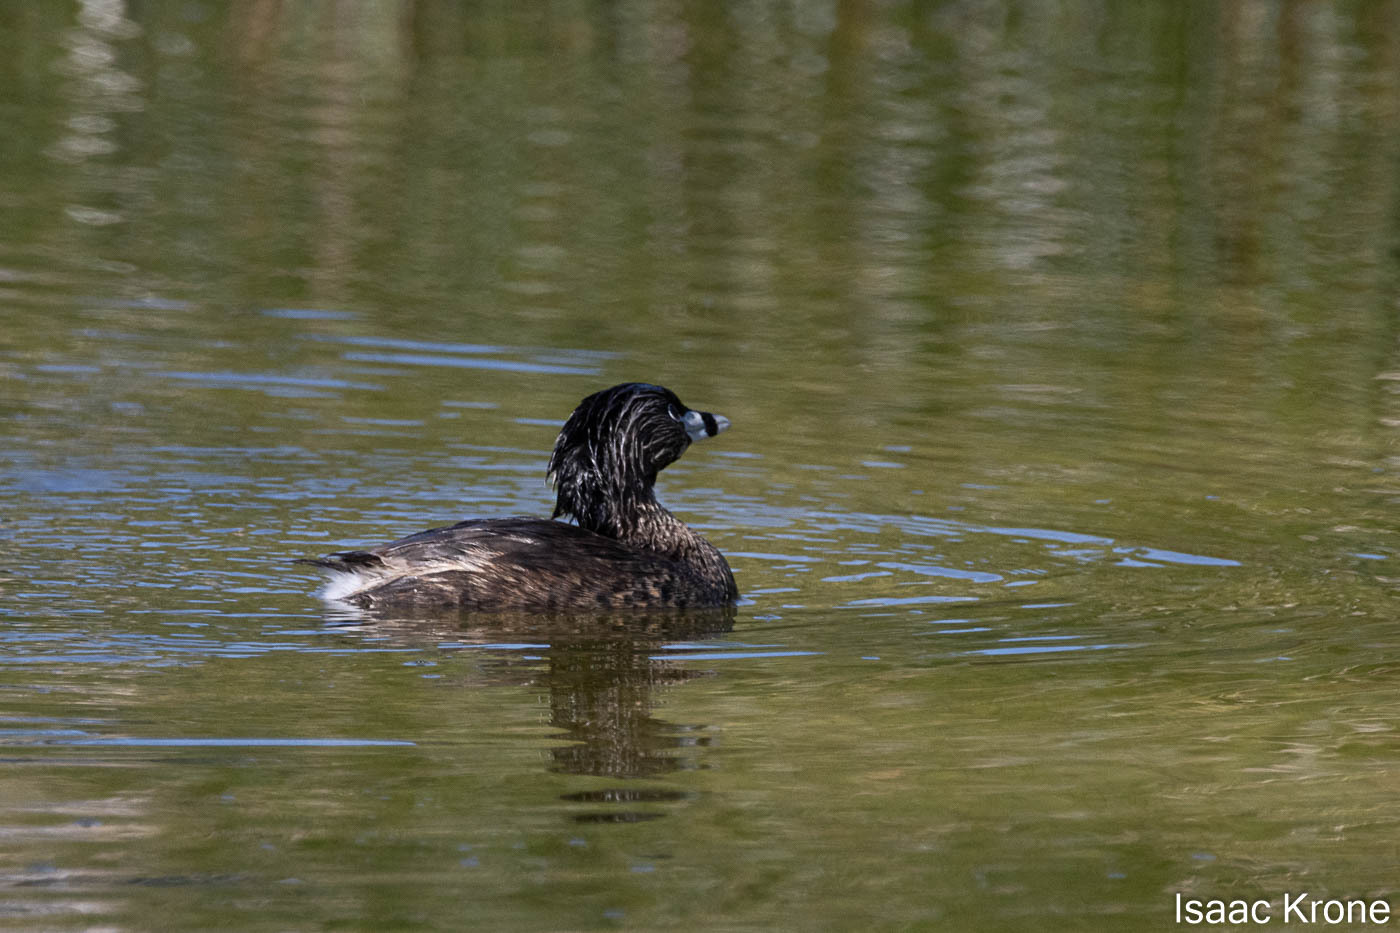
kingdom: Animalia
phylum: Chordata
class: Aves
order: Podicipediformes
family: Podicipedidae
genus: Podilymbus
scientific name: Podilymbus podiceps
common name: Pied-billed grebe
